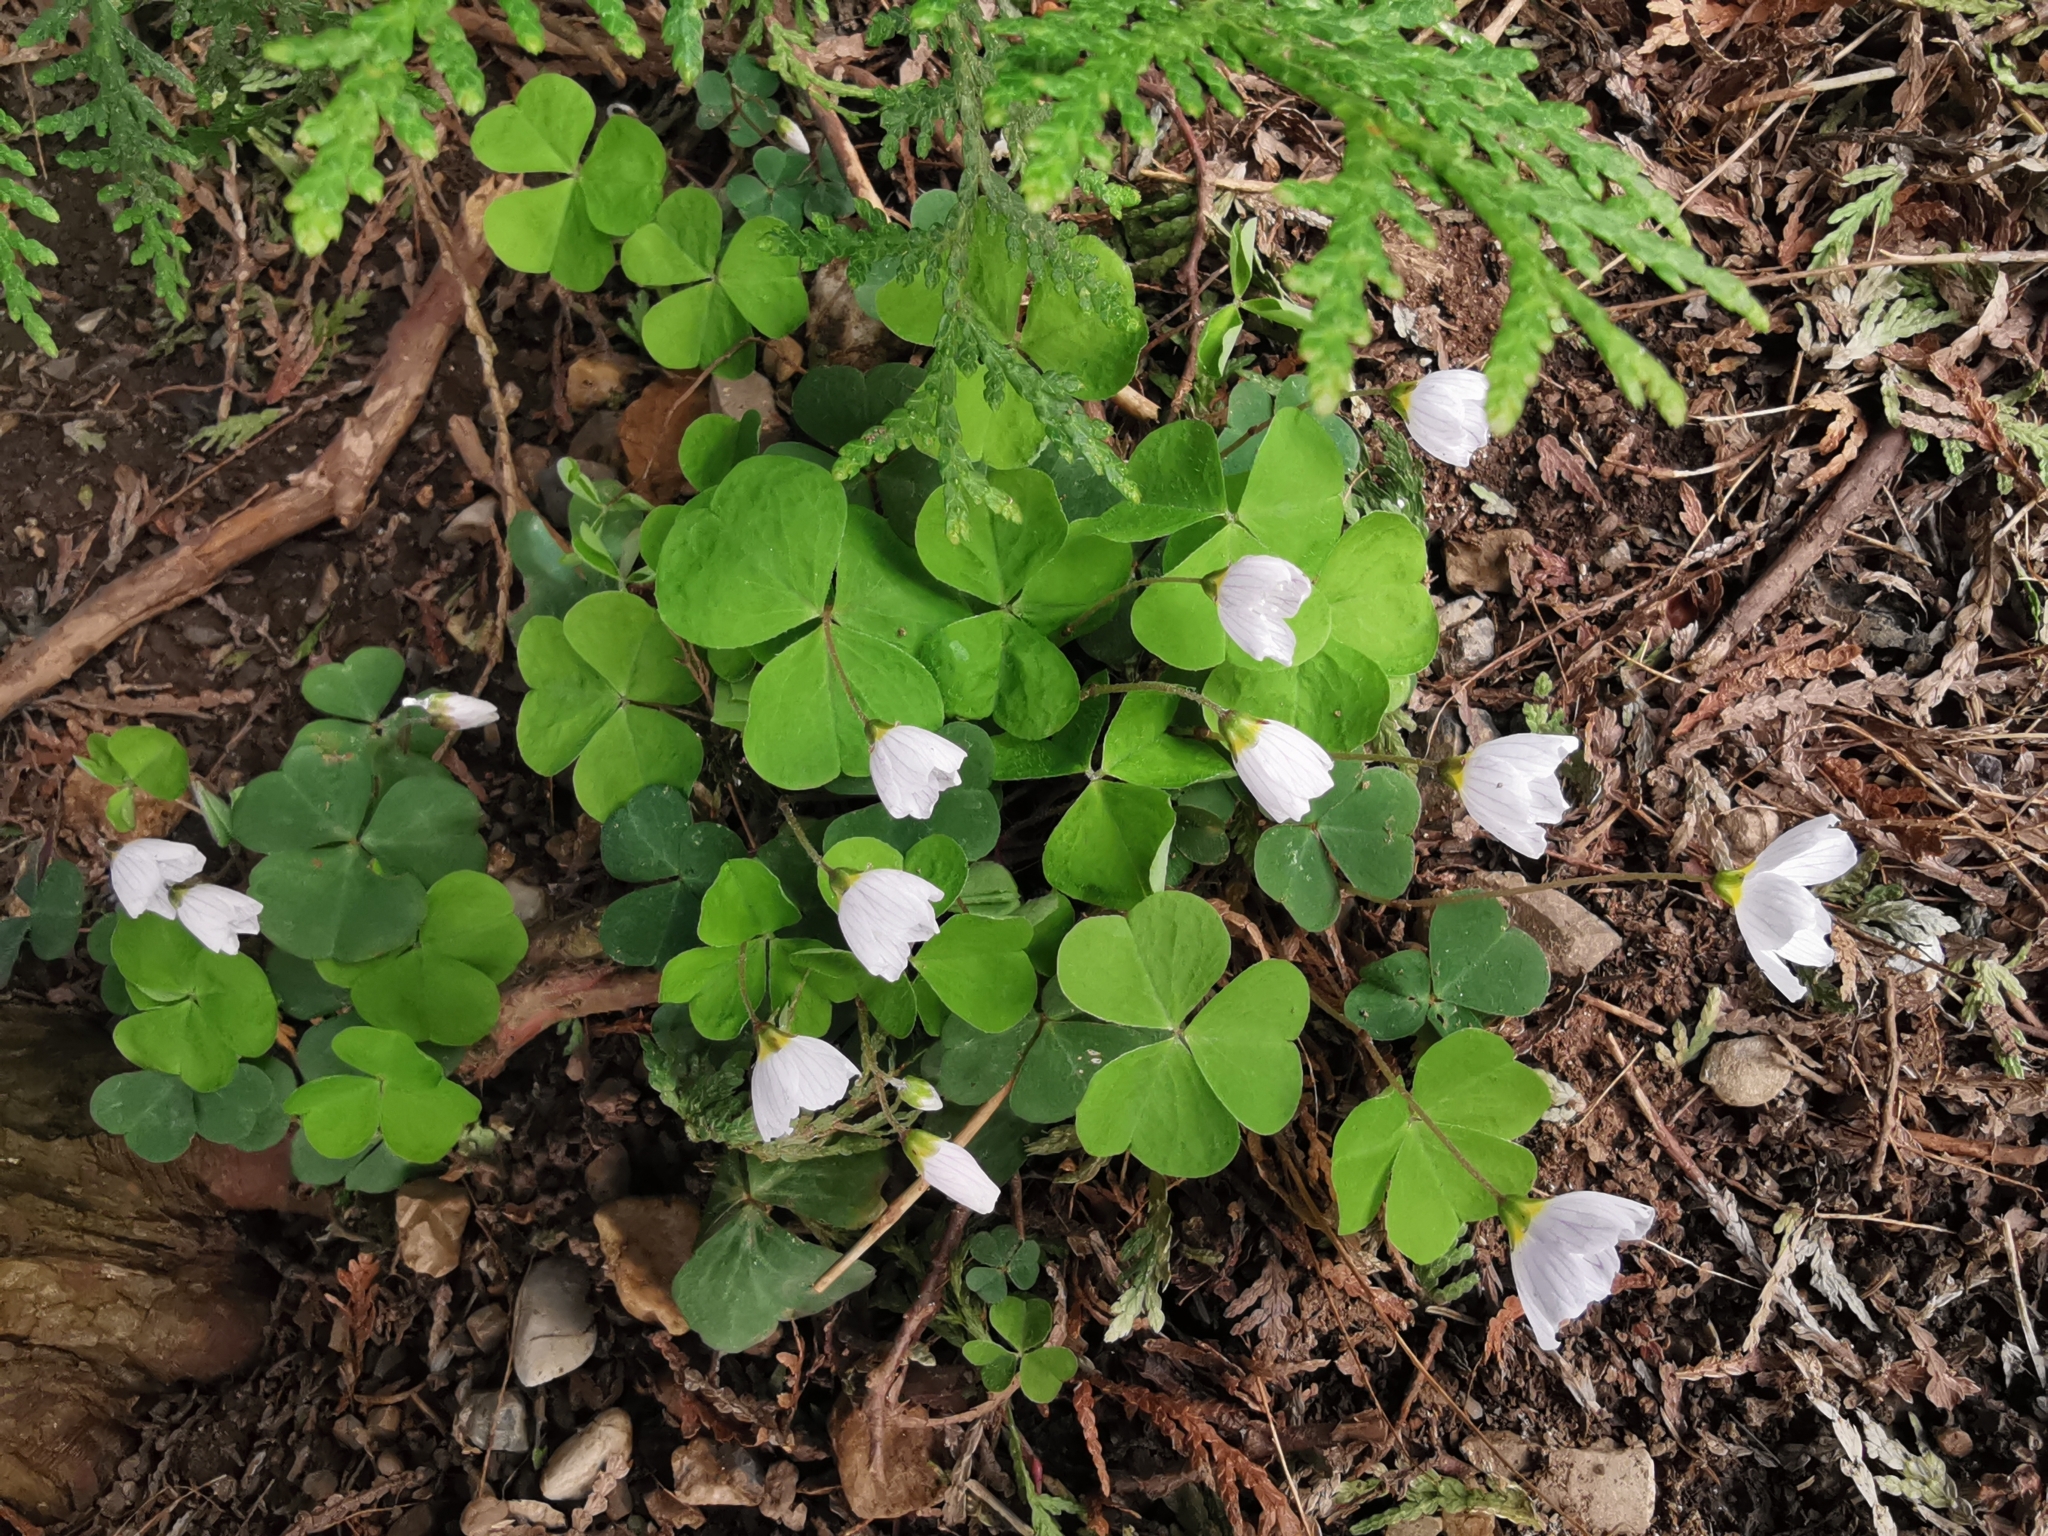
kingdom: Plantae
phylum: Tracheophyta
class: Magnoliopsida
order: Oxalidales
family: Oxalidaceae
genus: Oxalis
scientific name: Oxalis acetosella
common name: Wood-sorrel
